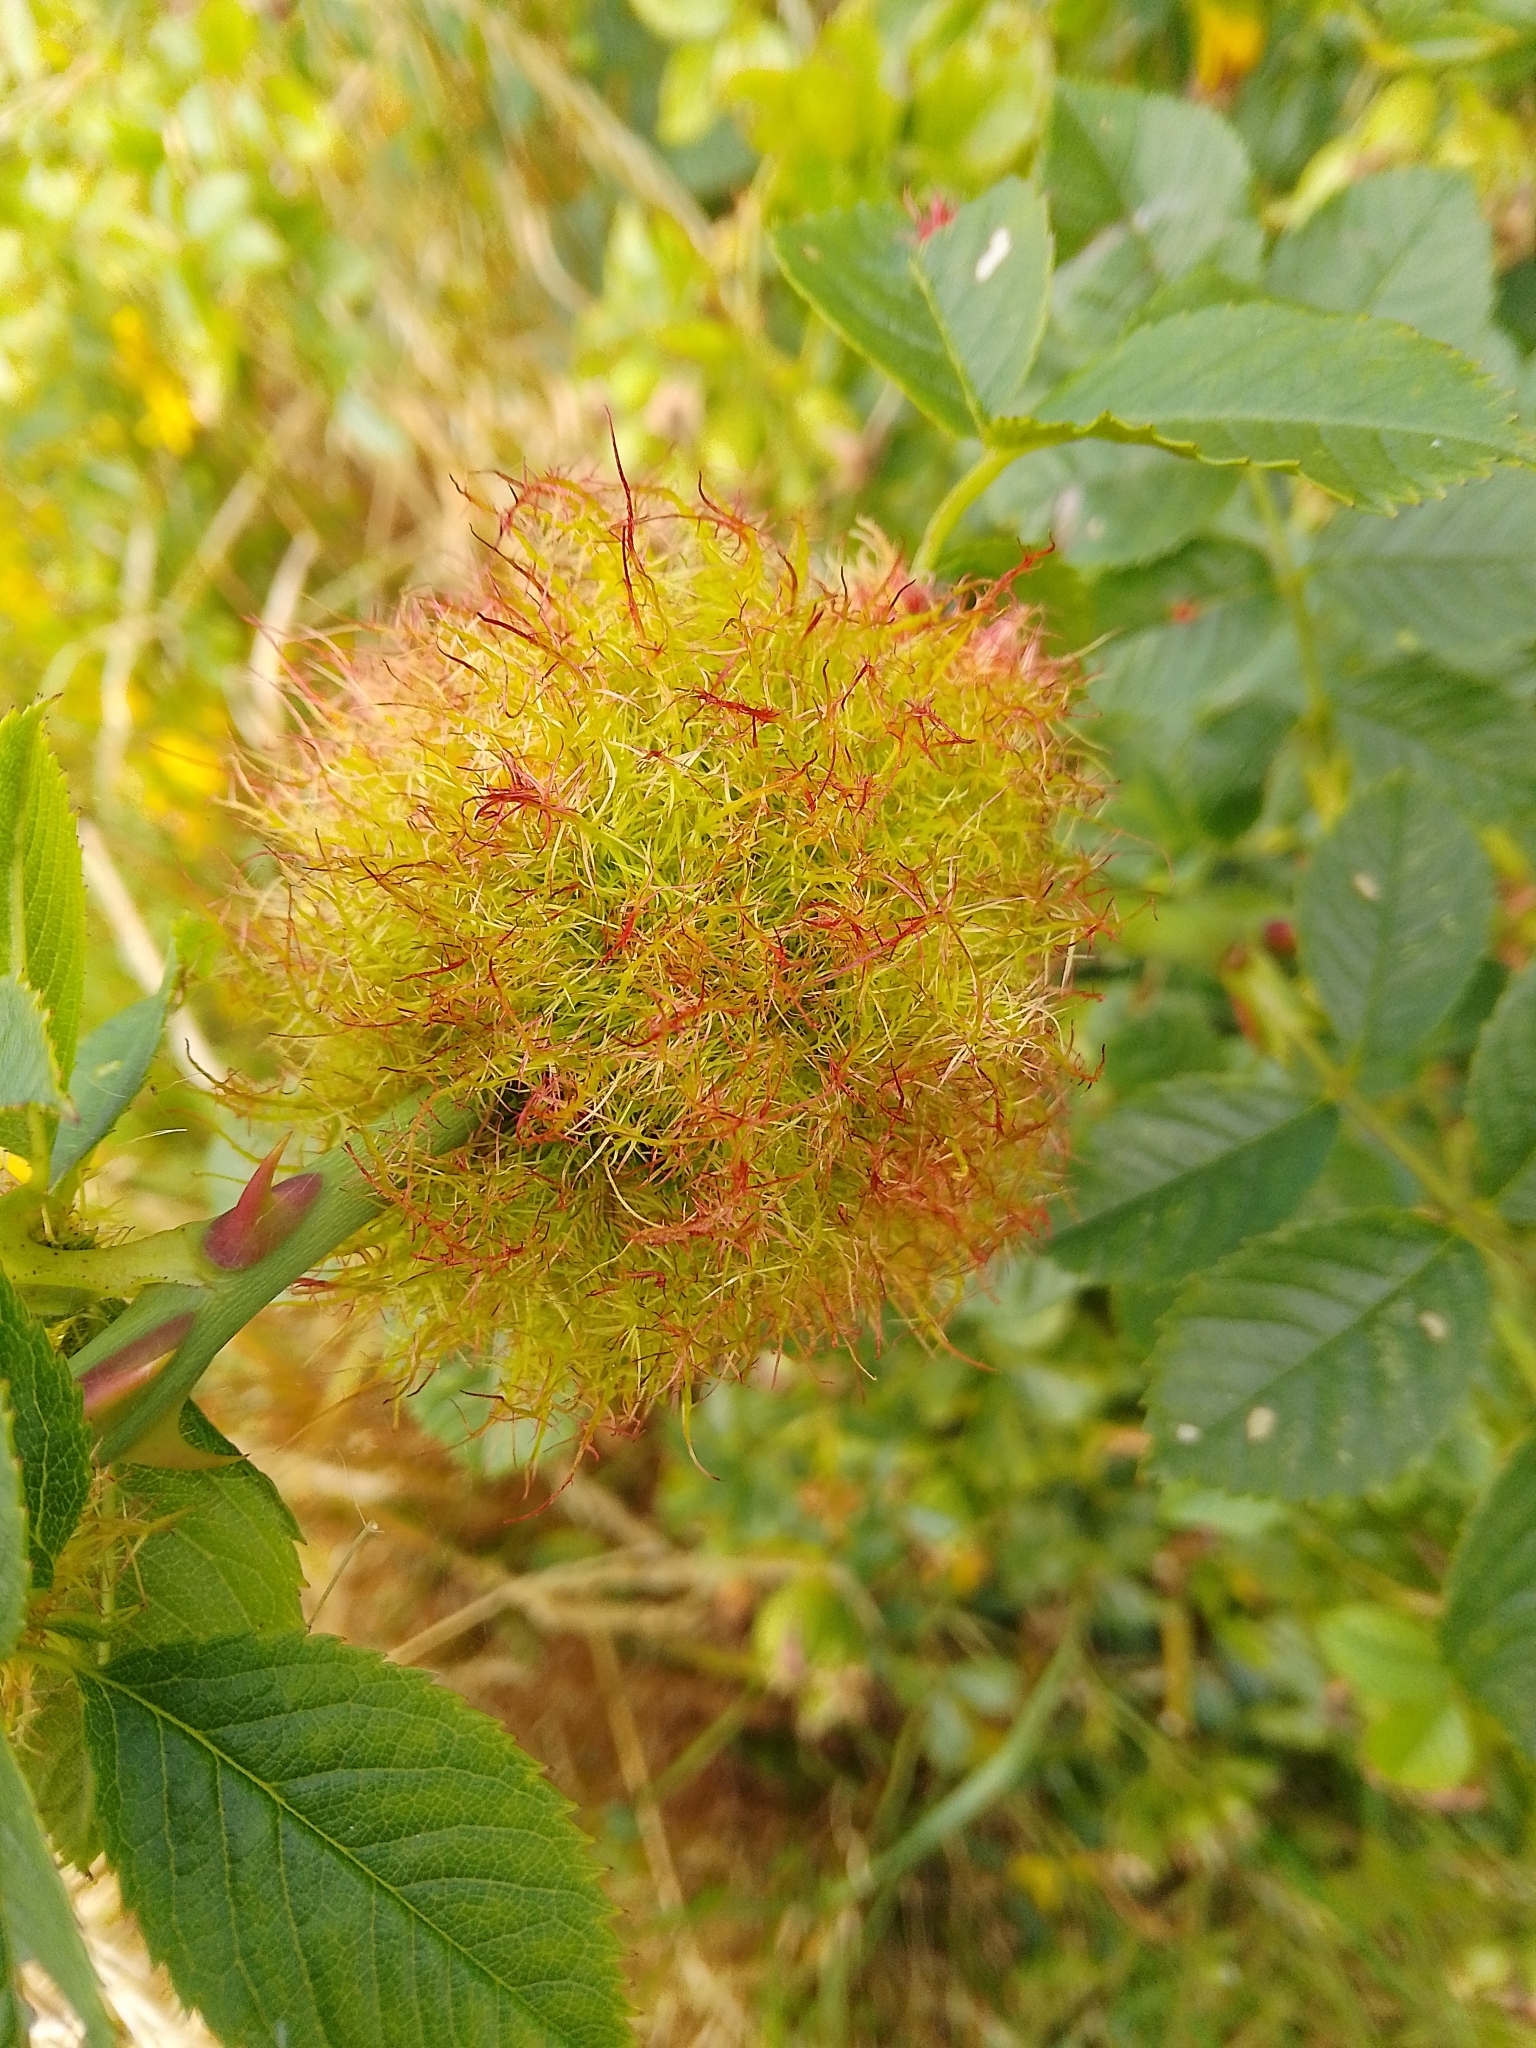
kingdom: Animalia
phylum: Arthropoda
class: Insecta
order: Hymenoptera
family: Cynipidae
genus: Diplolepis
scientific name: Diplolepis rosae
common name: Bedeguar gall
